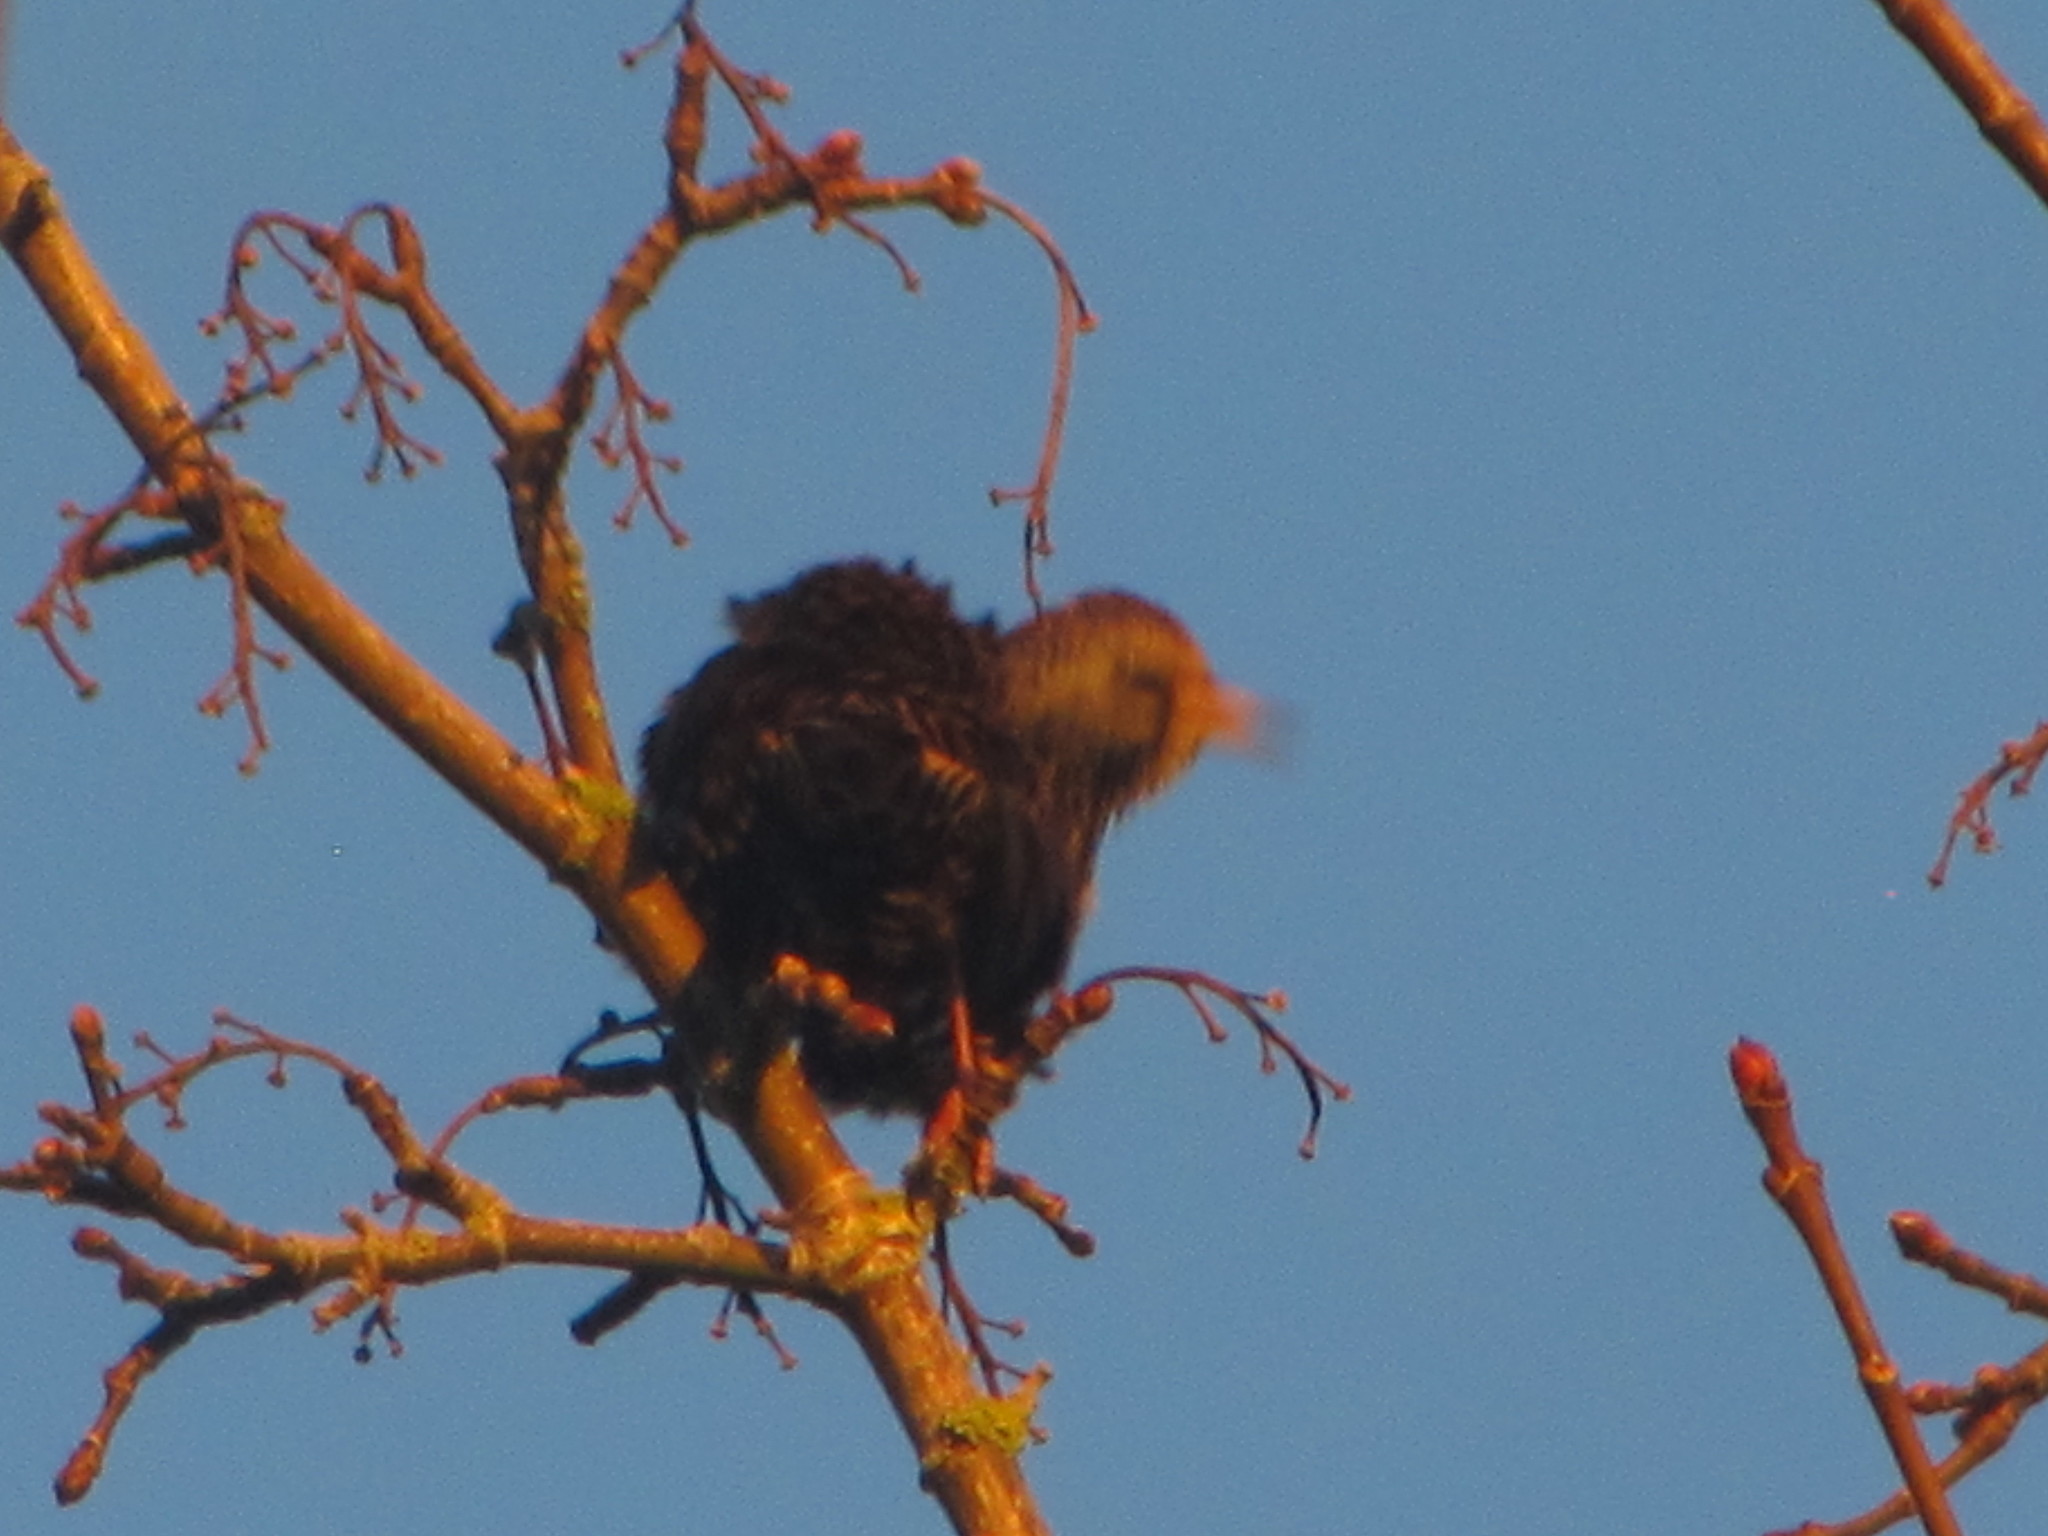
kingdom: Animalia
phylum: Chordata
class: Aves
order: Passeriformes
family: Sturnidae
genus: Sturnus
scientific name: Sturnus vulgaris
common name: Common starling
